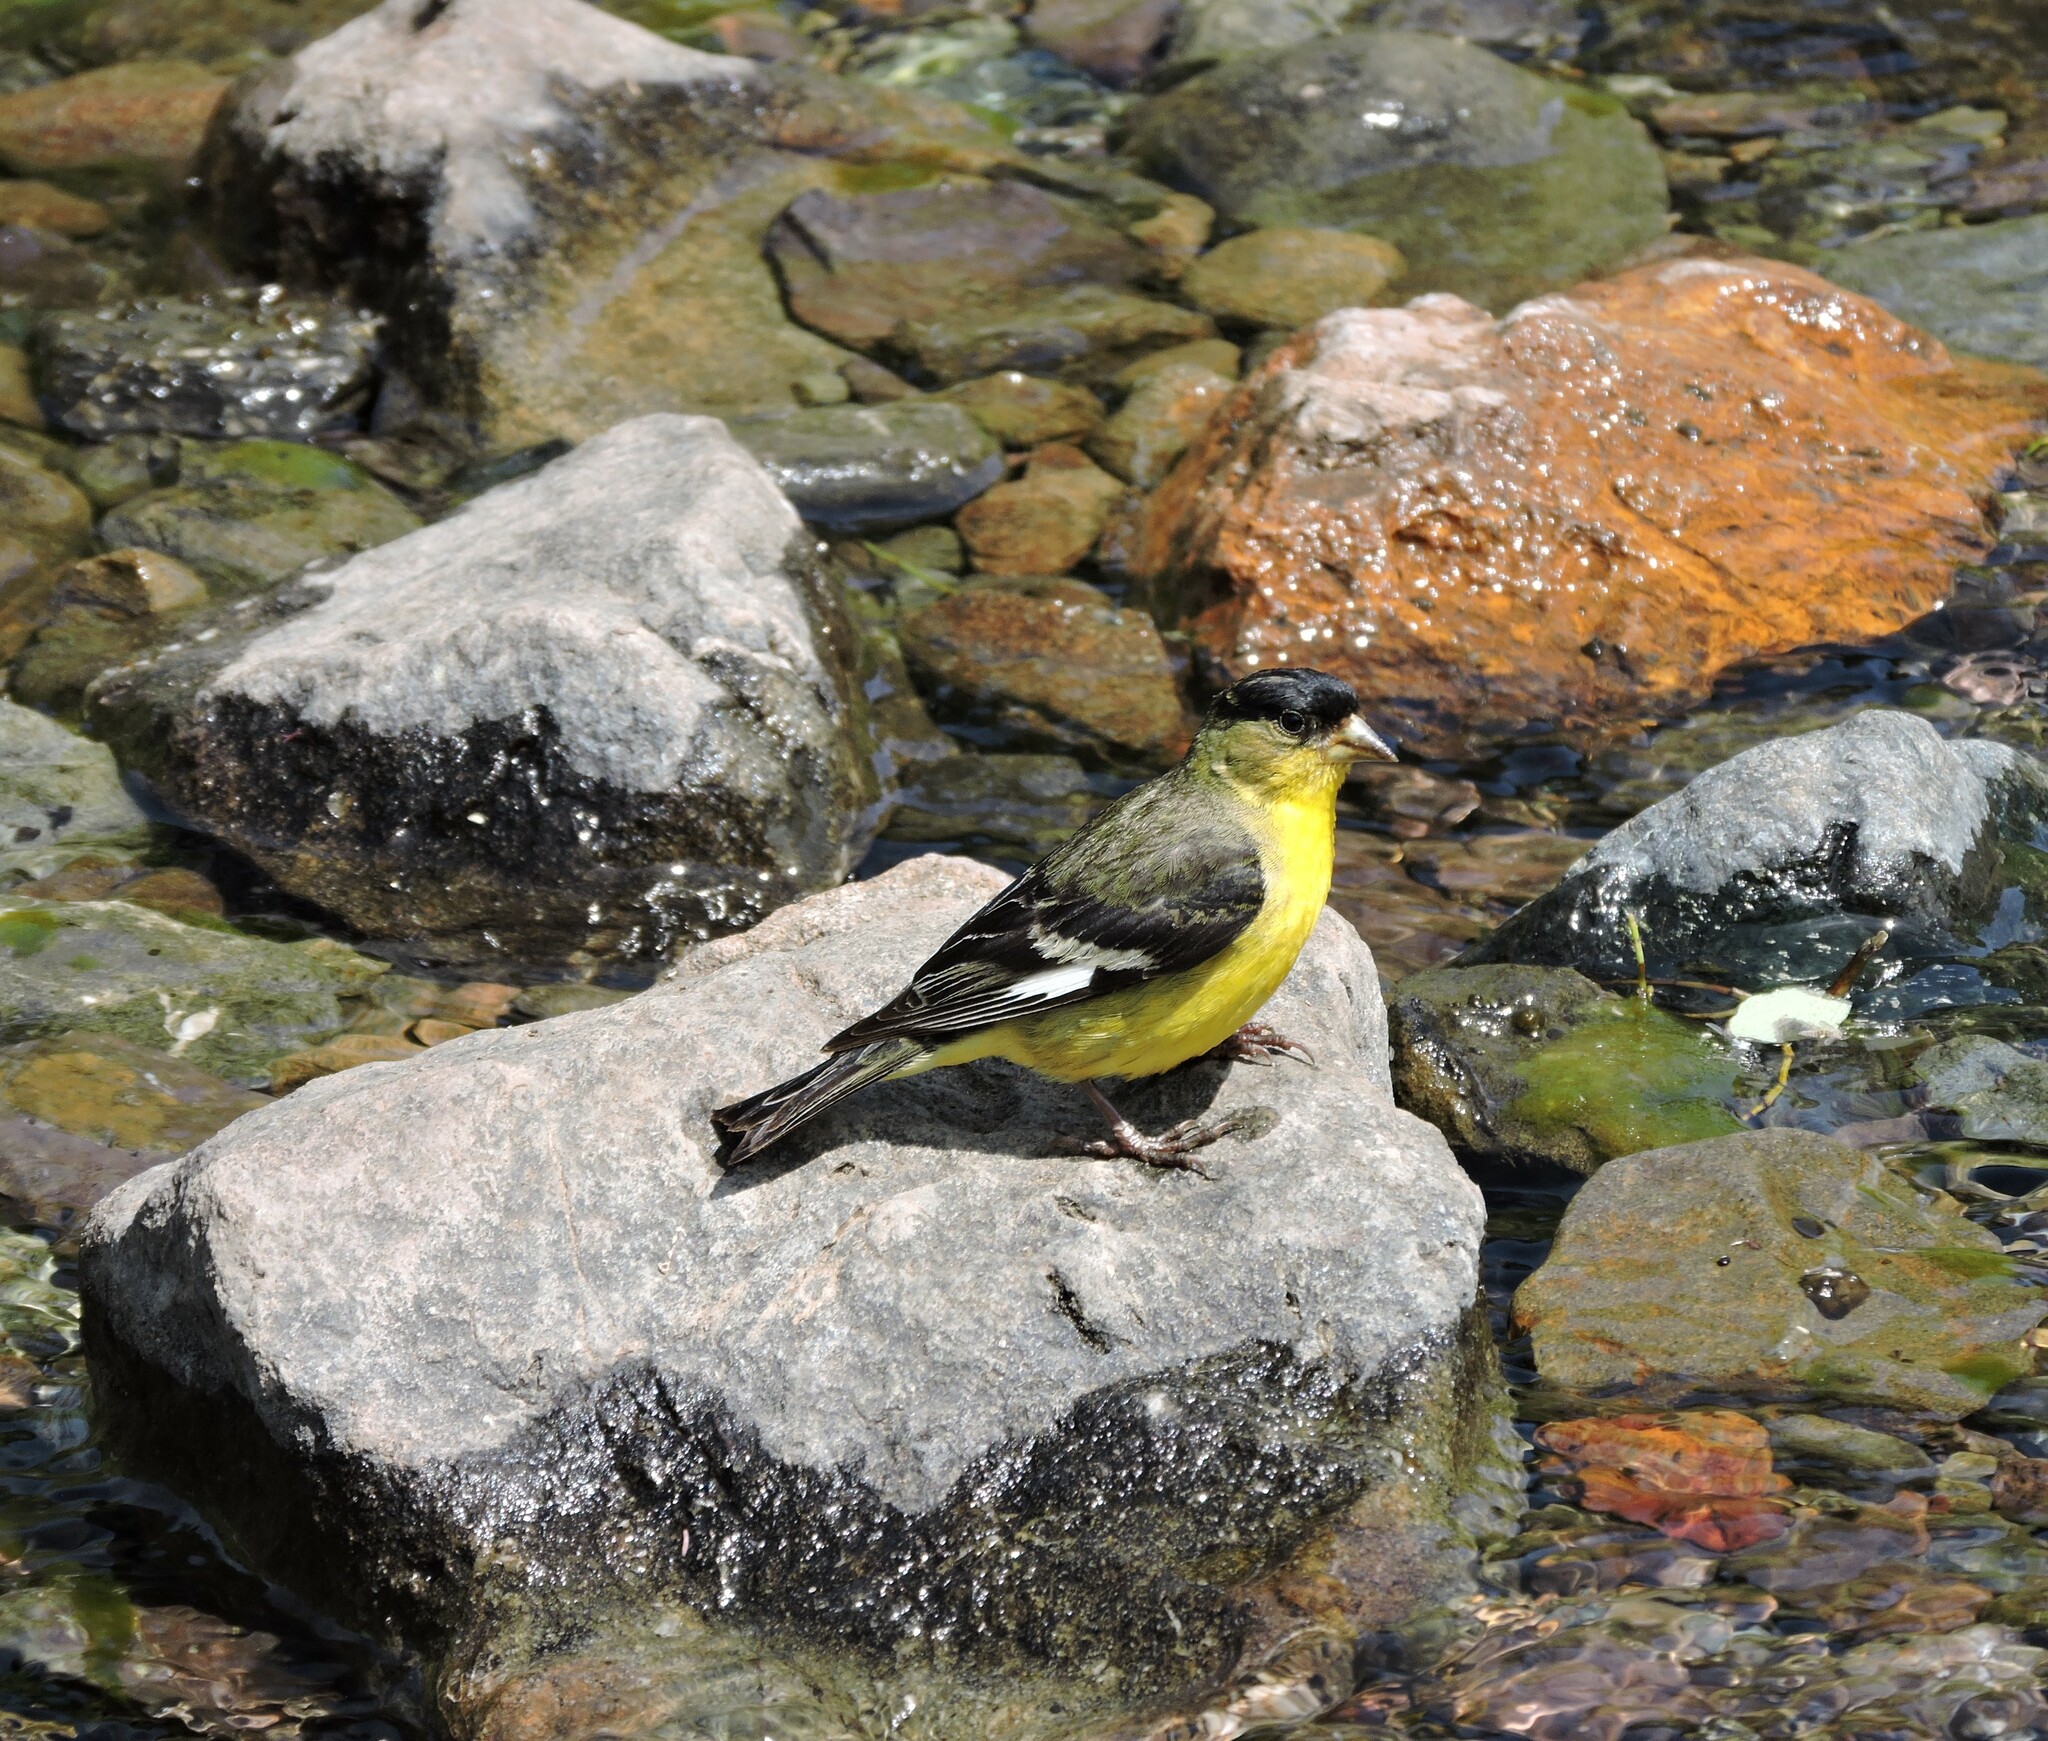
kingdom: Animalia
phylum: Chordata
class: Aves
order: Passeriformes
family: Fringillidae
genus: Spinus
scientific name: Spinus psaltria
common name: Lesser goldfinch
